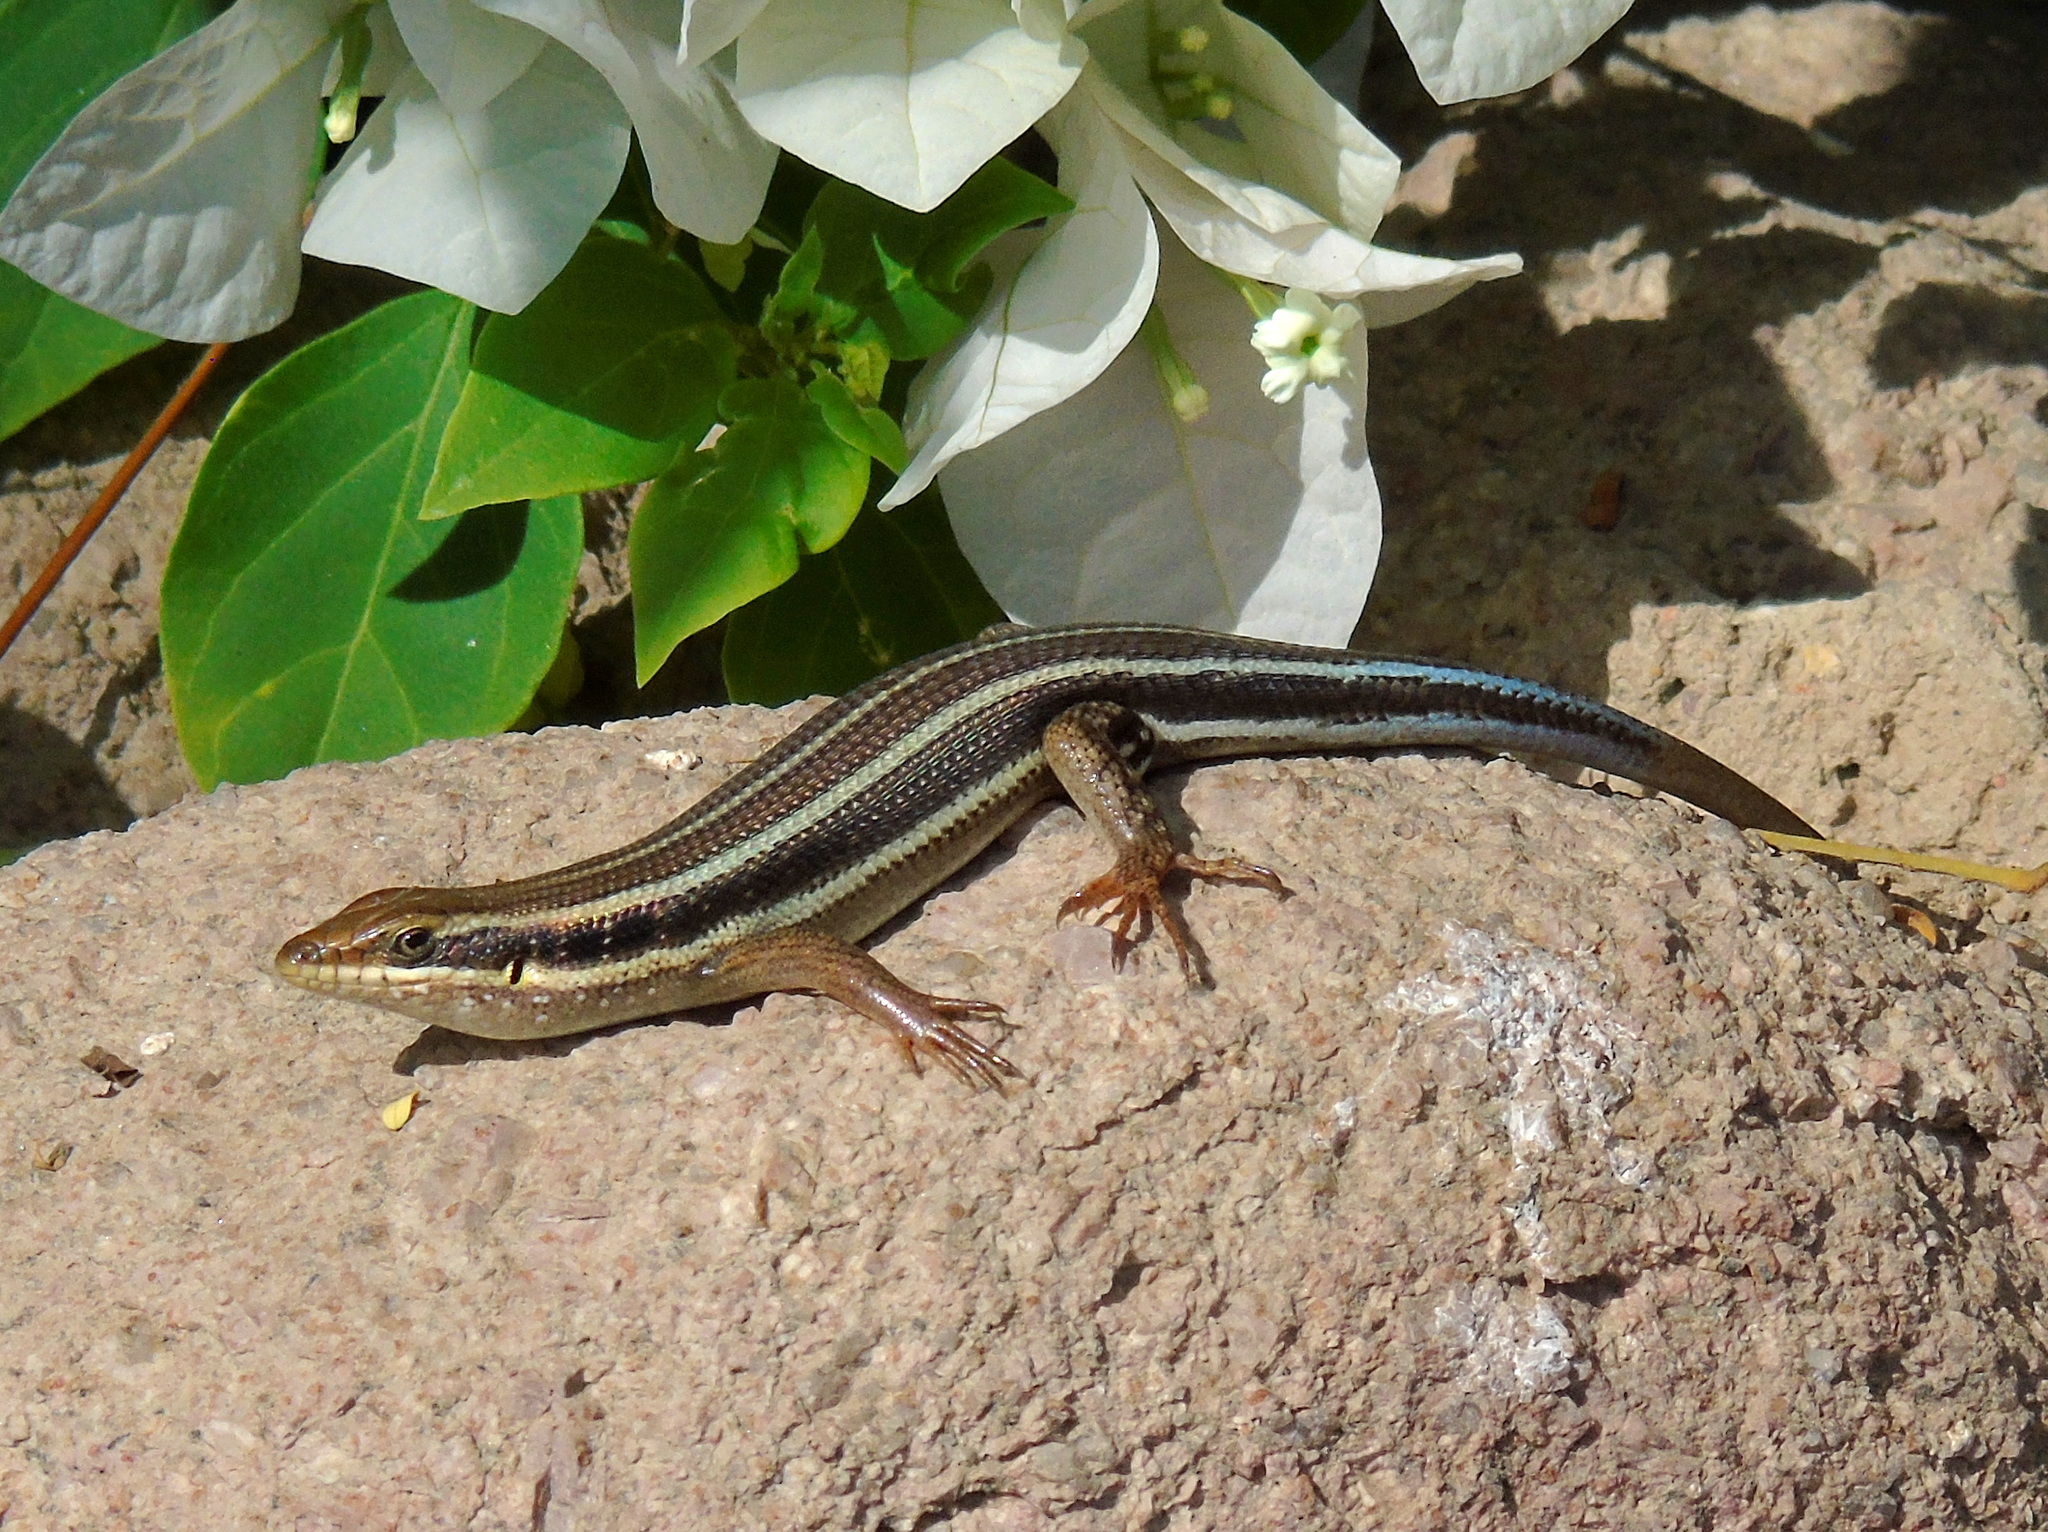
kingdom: Animalia
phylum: Chordata
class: Squamata
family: Scincidae
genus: Trachylepis
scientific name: Trachylepis quinquetaeniata
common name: African five-lined skink
